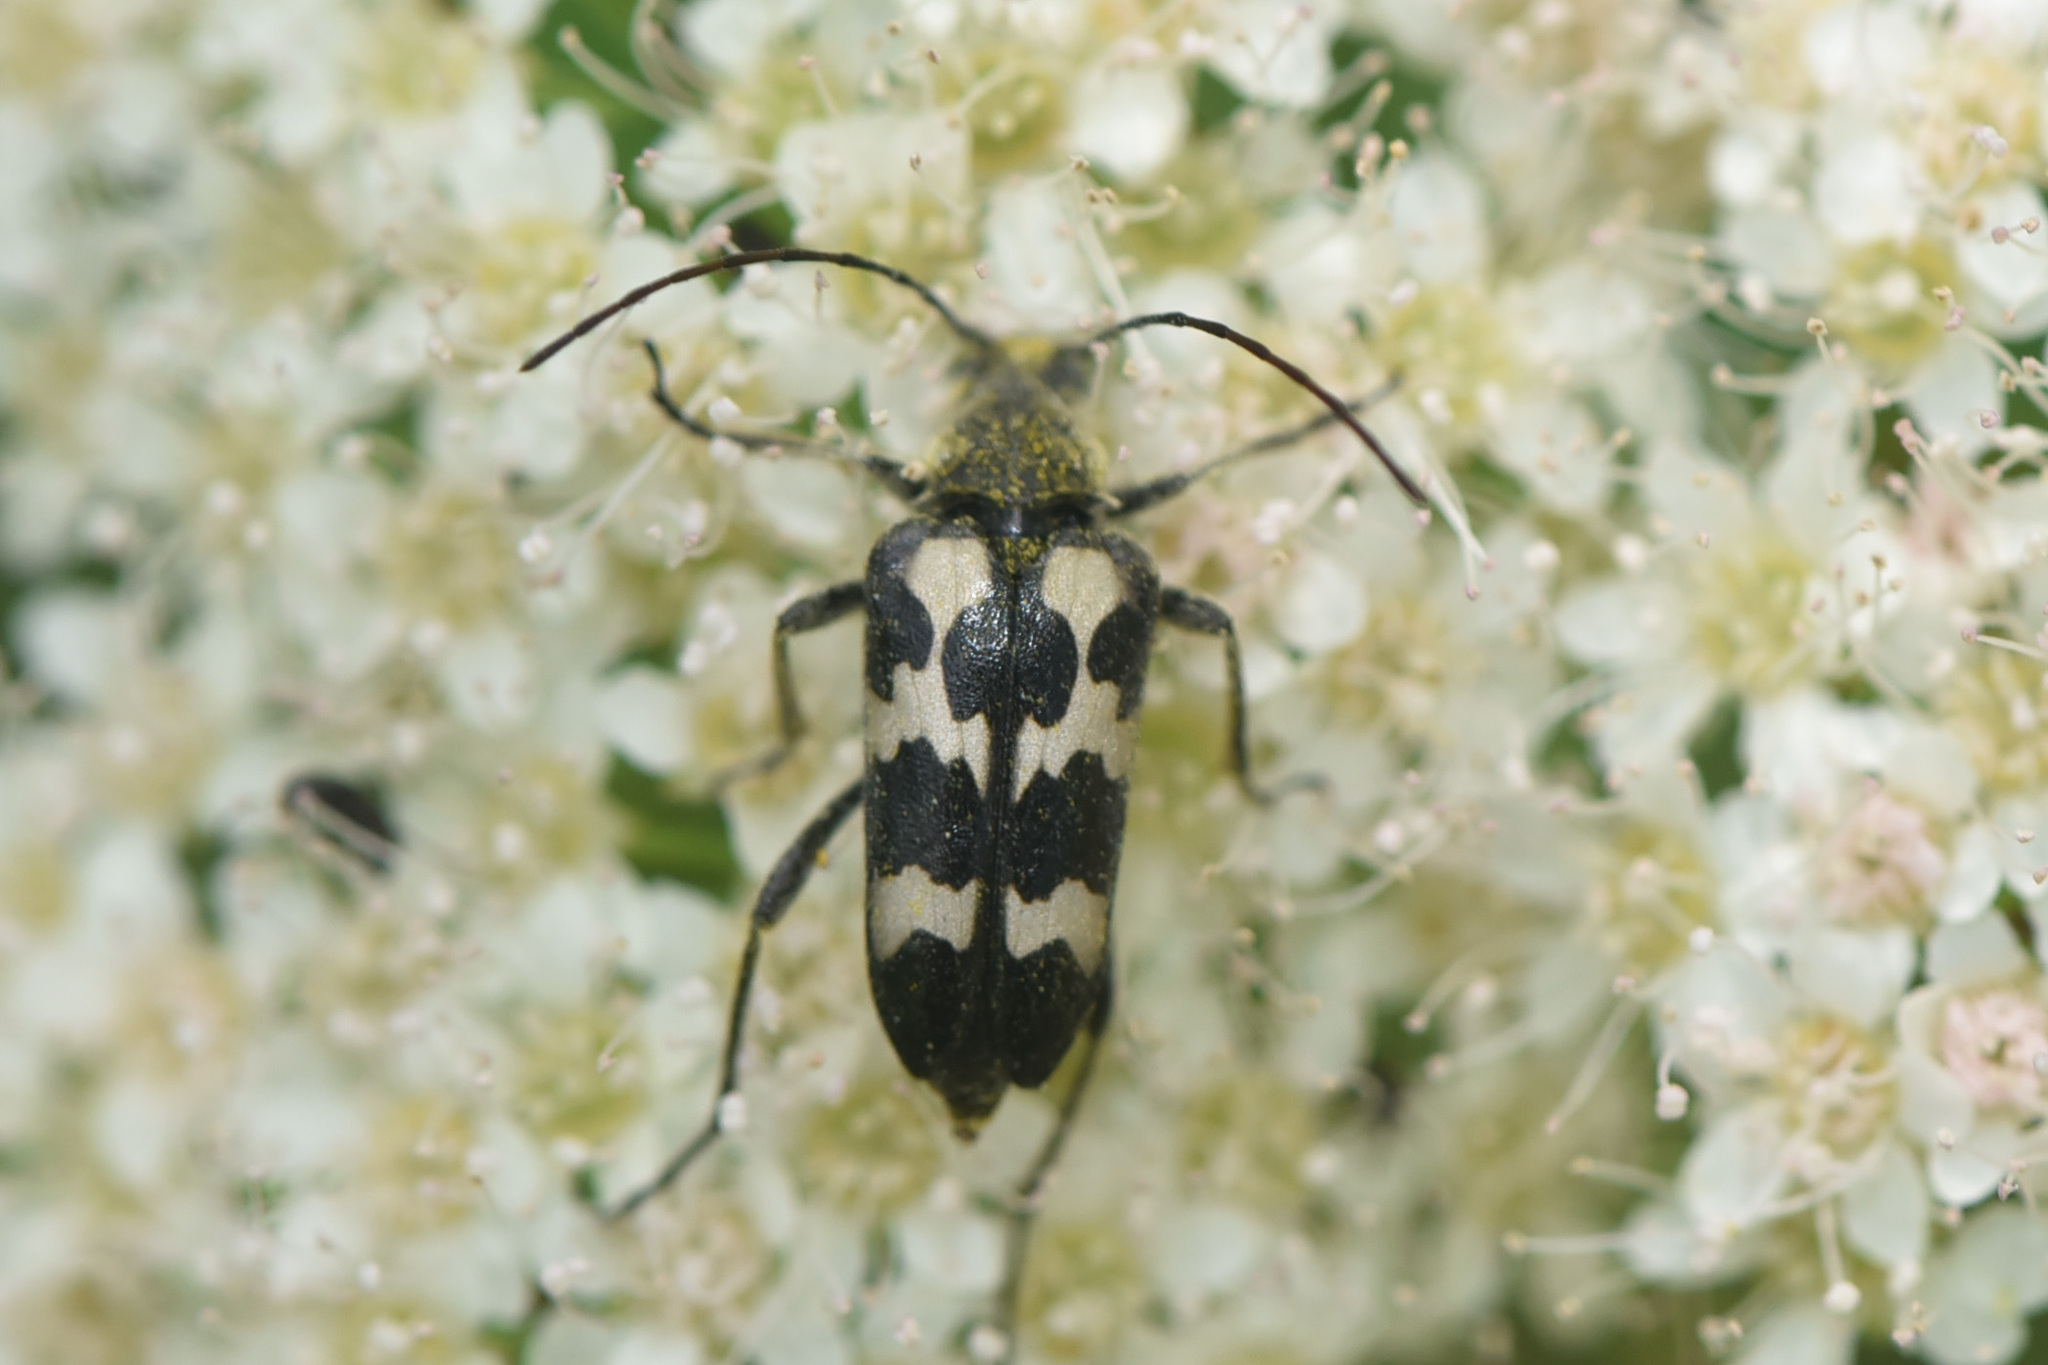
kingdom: Animalia
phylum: Arthropoda
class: Insecta
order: Coleoptera
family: Cerambycidae
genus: Judolia
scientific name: Judolia montivagans
